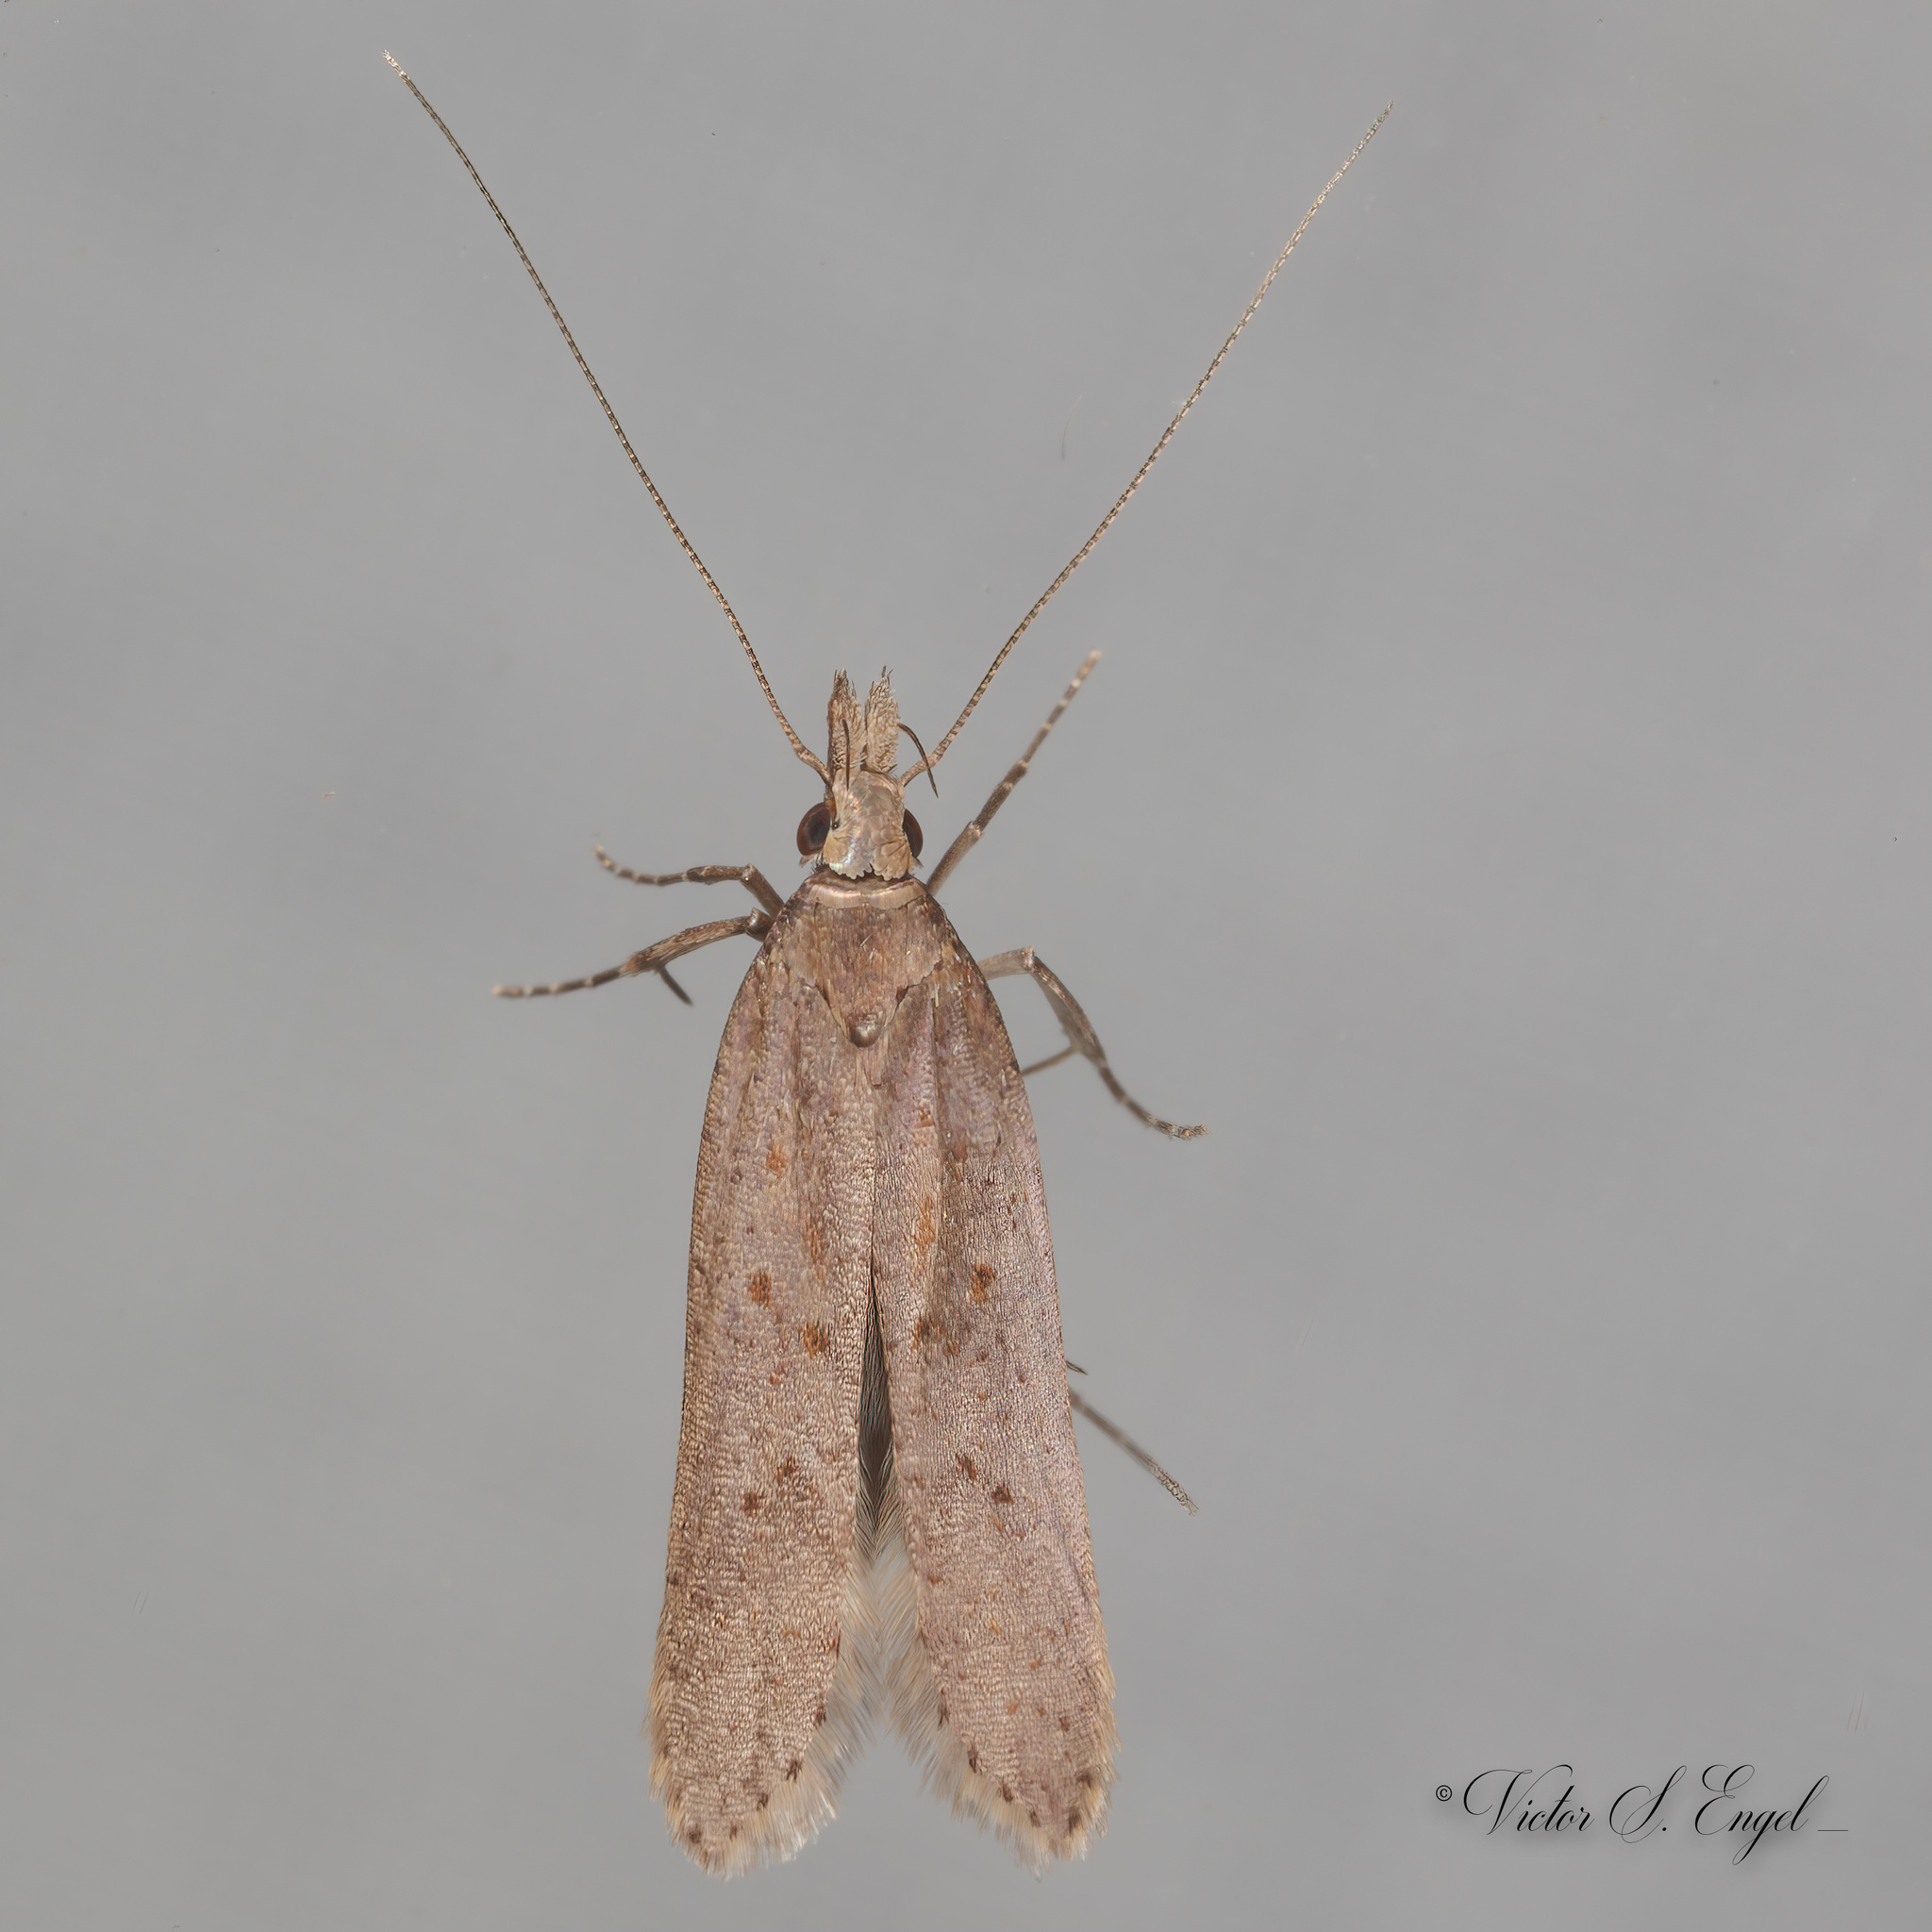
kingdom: Animalia
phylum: Arthropoda
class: Insecta
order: Lepidoptera
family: Gelechiidae
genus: Dichomeris
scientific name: Dichomeris ligulella
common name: Moth
